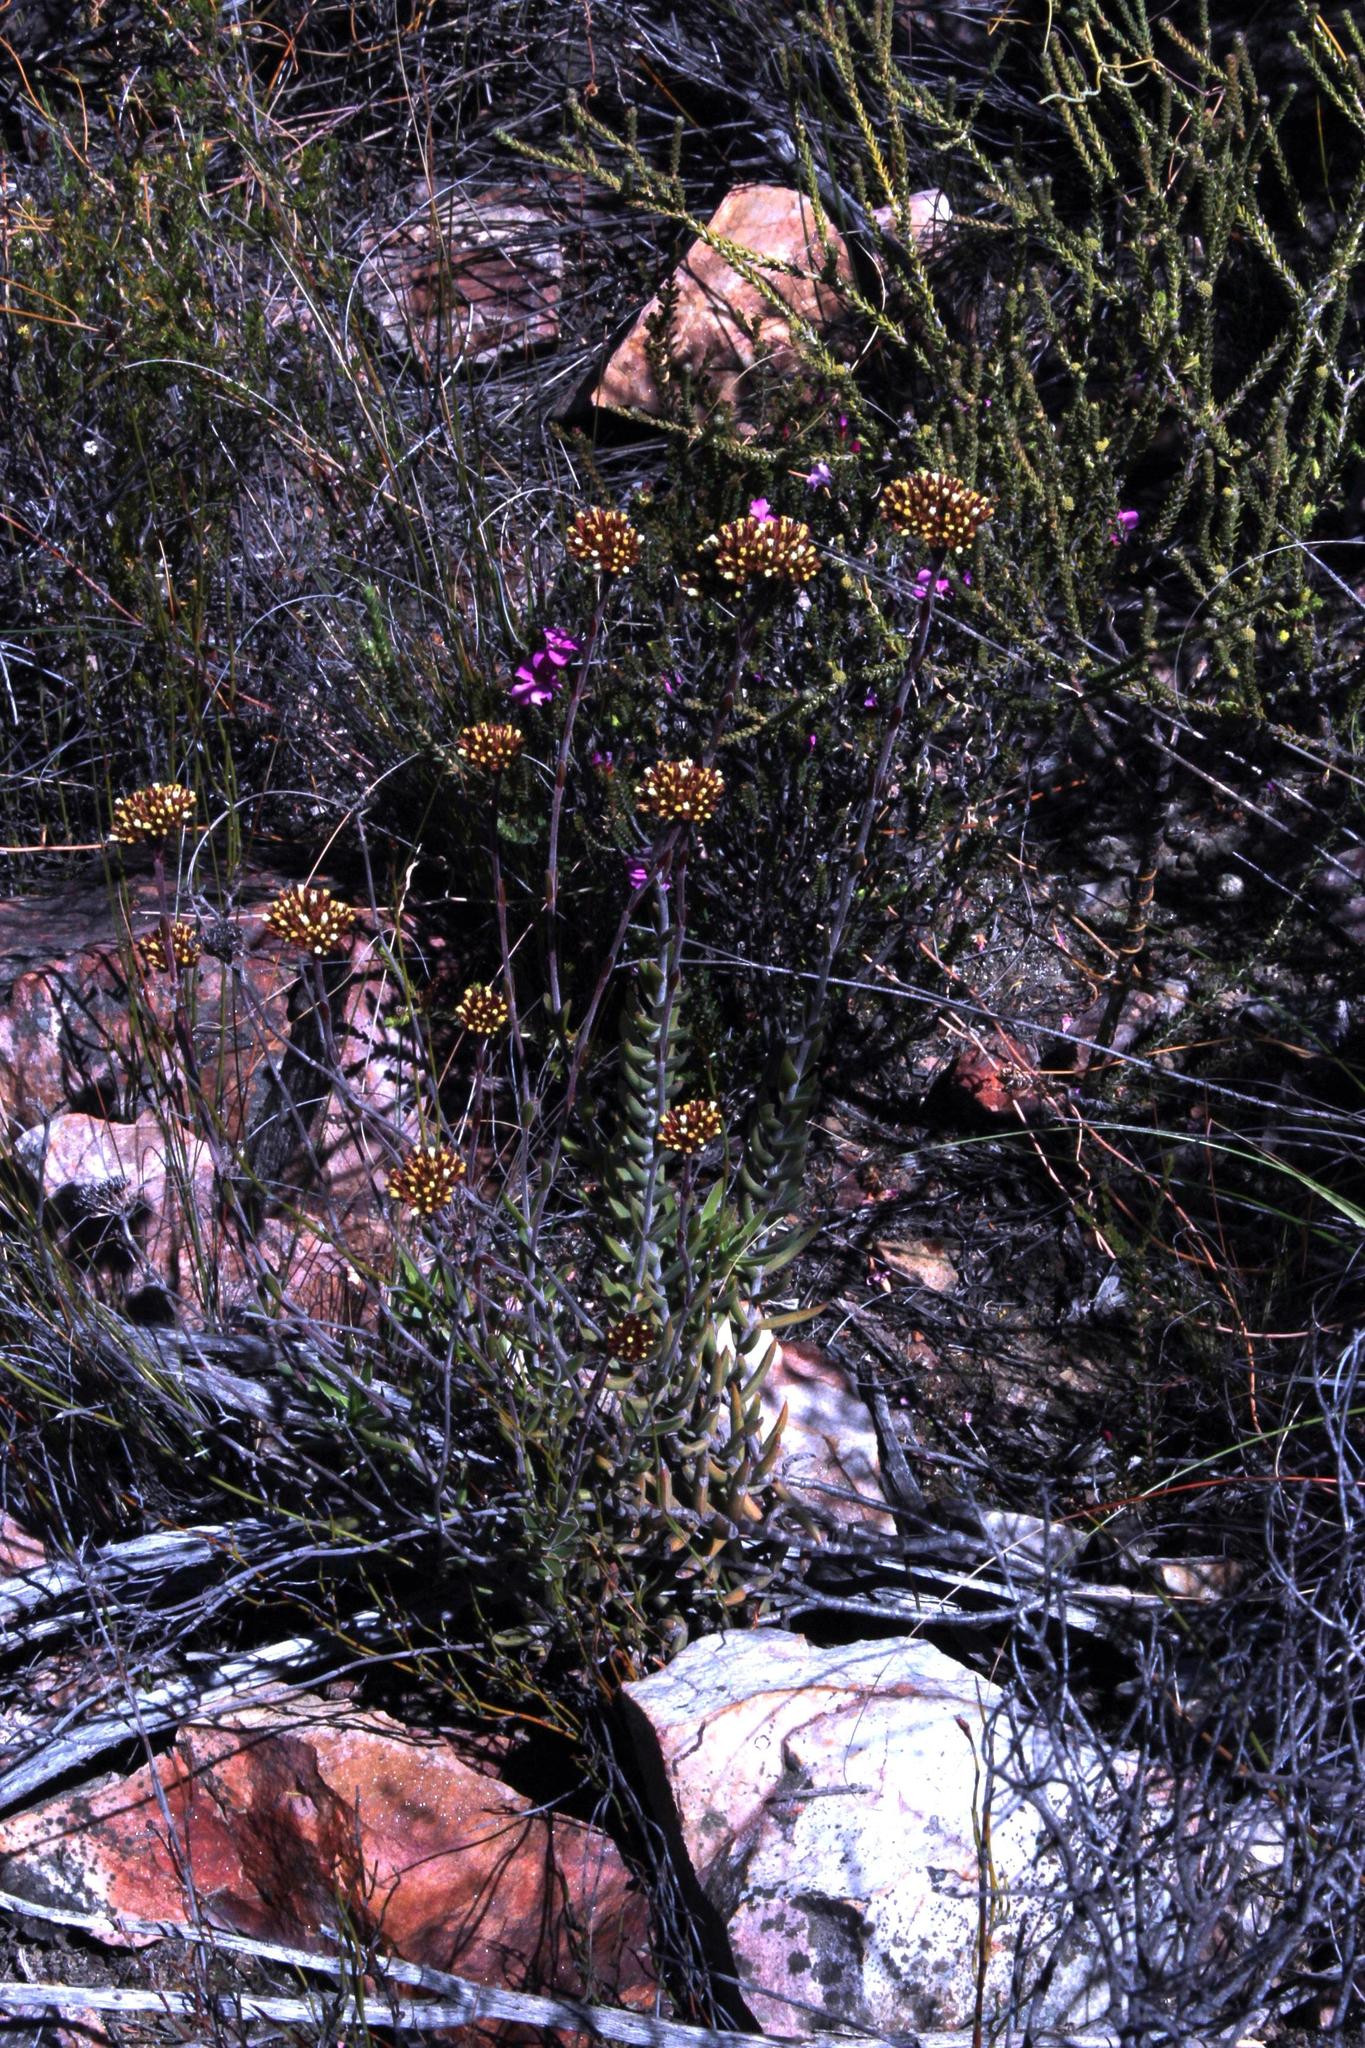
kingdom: Plantae
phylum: Tracheophyta
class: Magnoliopsida
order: Saxifragales
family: Crassulaceae
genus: Crassula
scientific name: Crassula mollis
